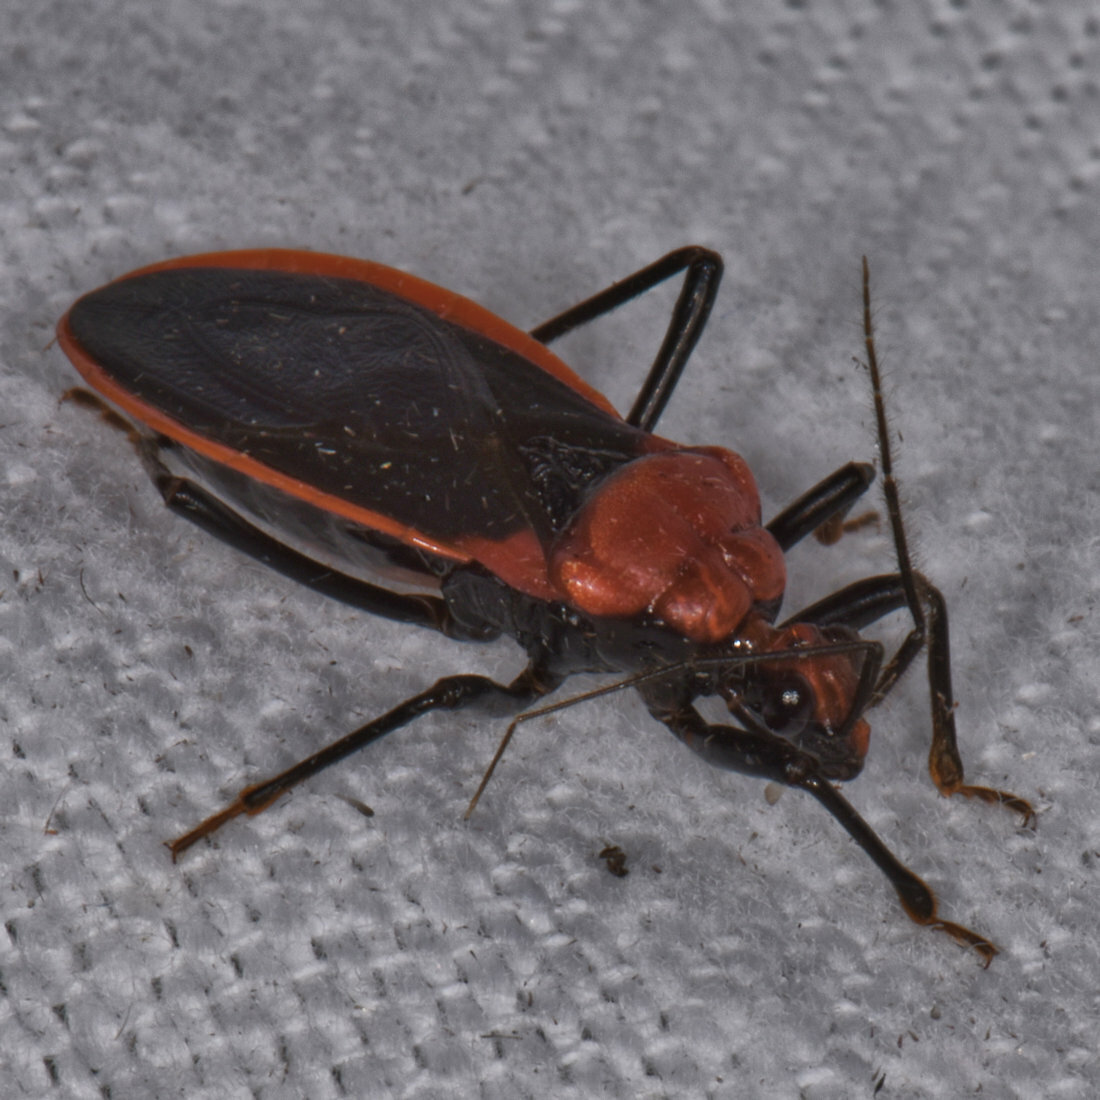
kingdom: Animalia
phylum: Arthropoda
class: Insecta
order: Hemiptera
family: Reduviidae
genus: Rhiginia
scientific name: Rhiginia crudelis
